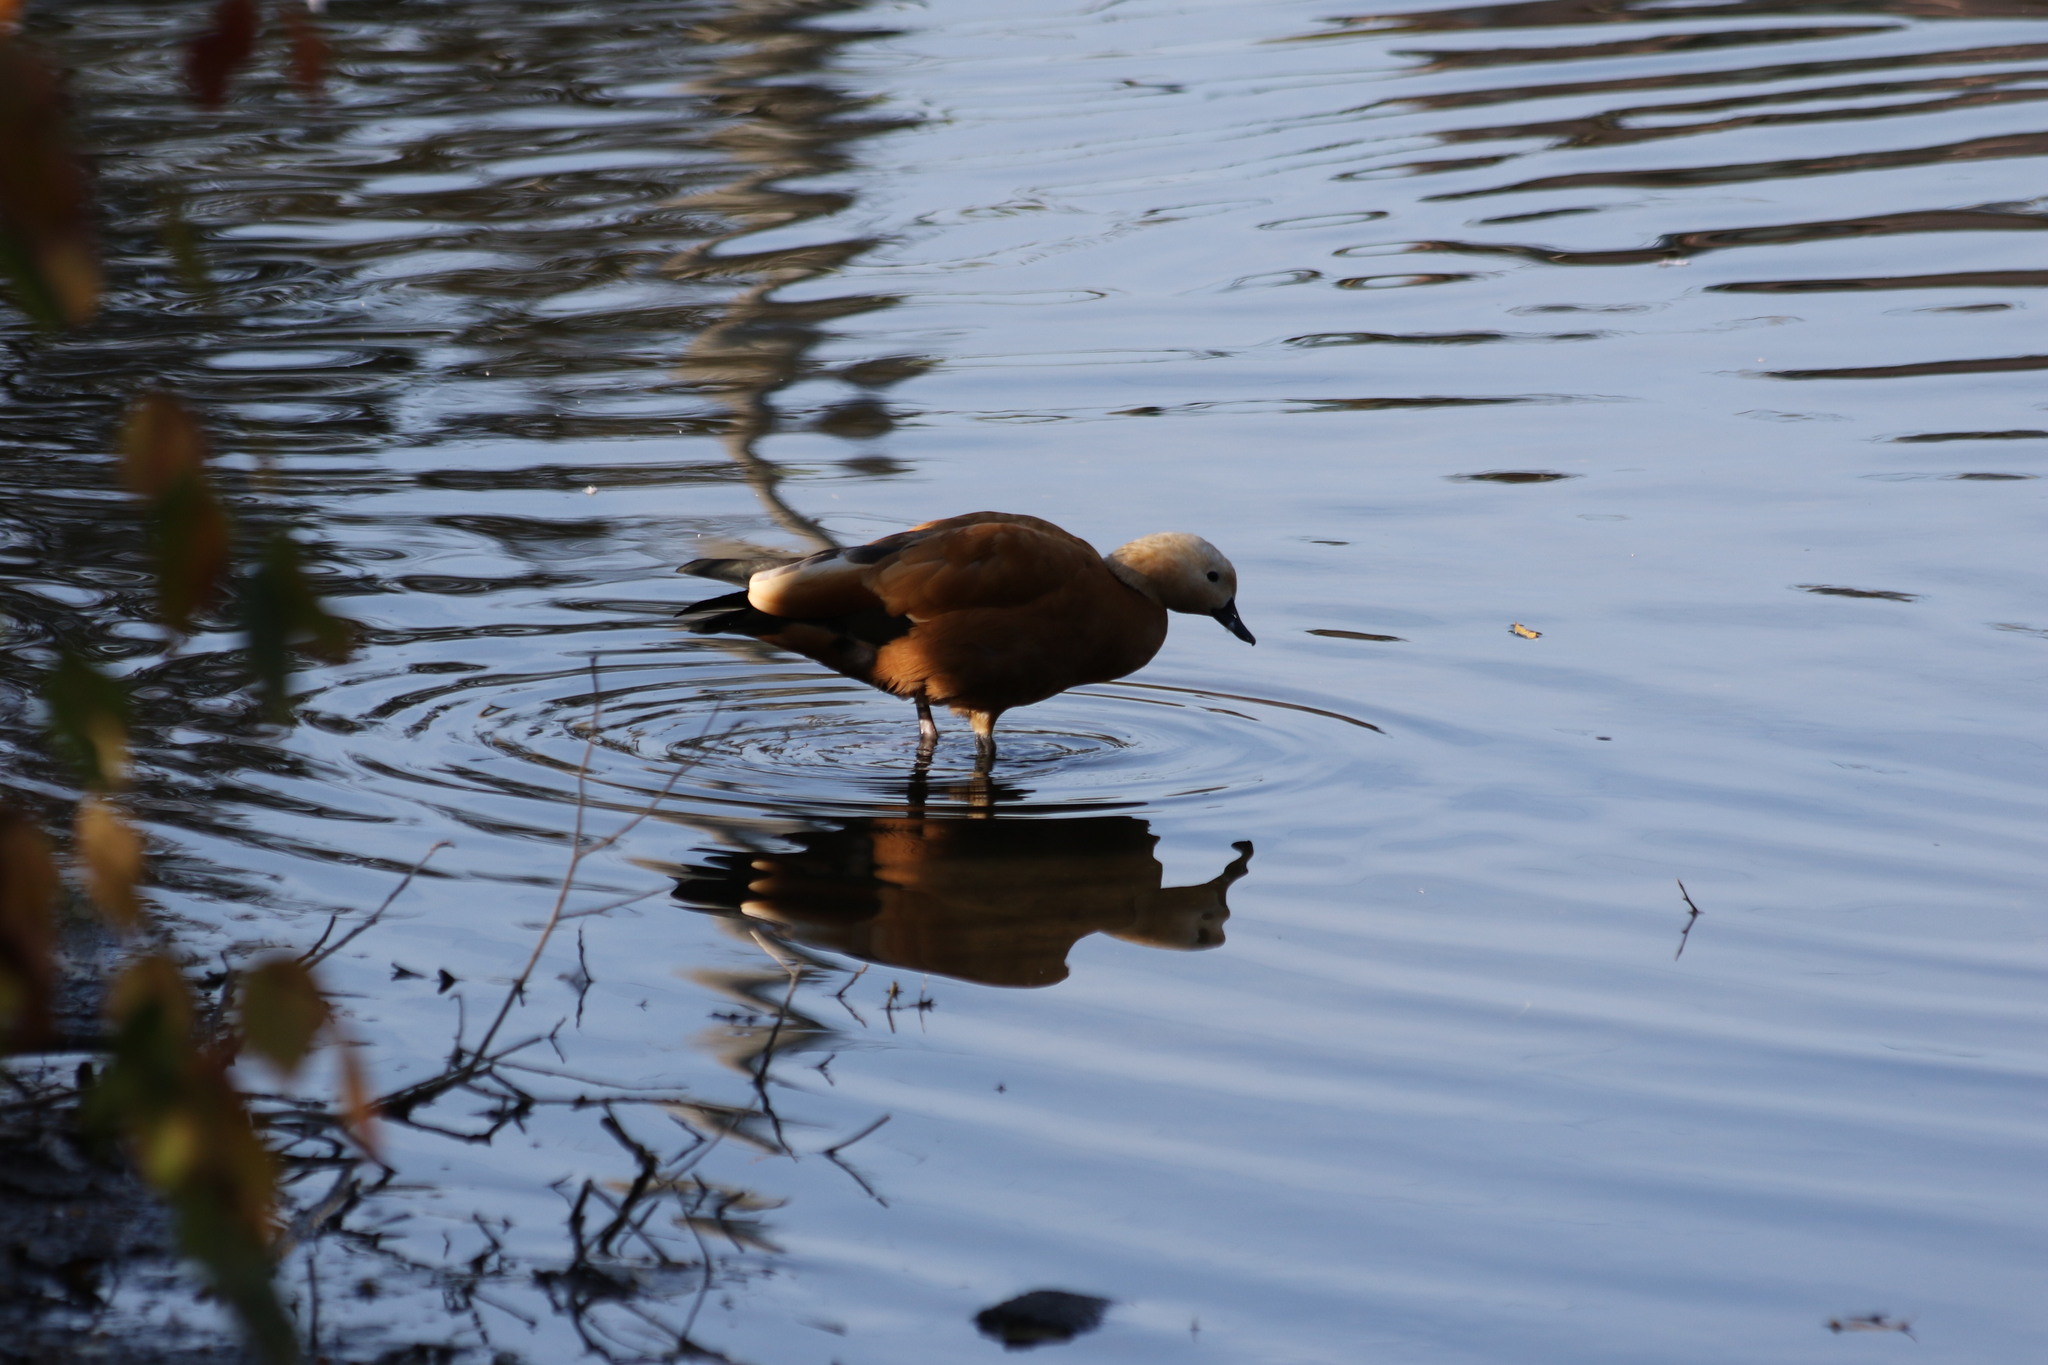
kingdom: Animalia
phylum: Chordata
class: Aves
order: Anseriformes
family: Anatidae
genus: Tadorna
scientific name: Tadorna ferruginea
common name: Ruddy shelduck
